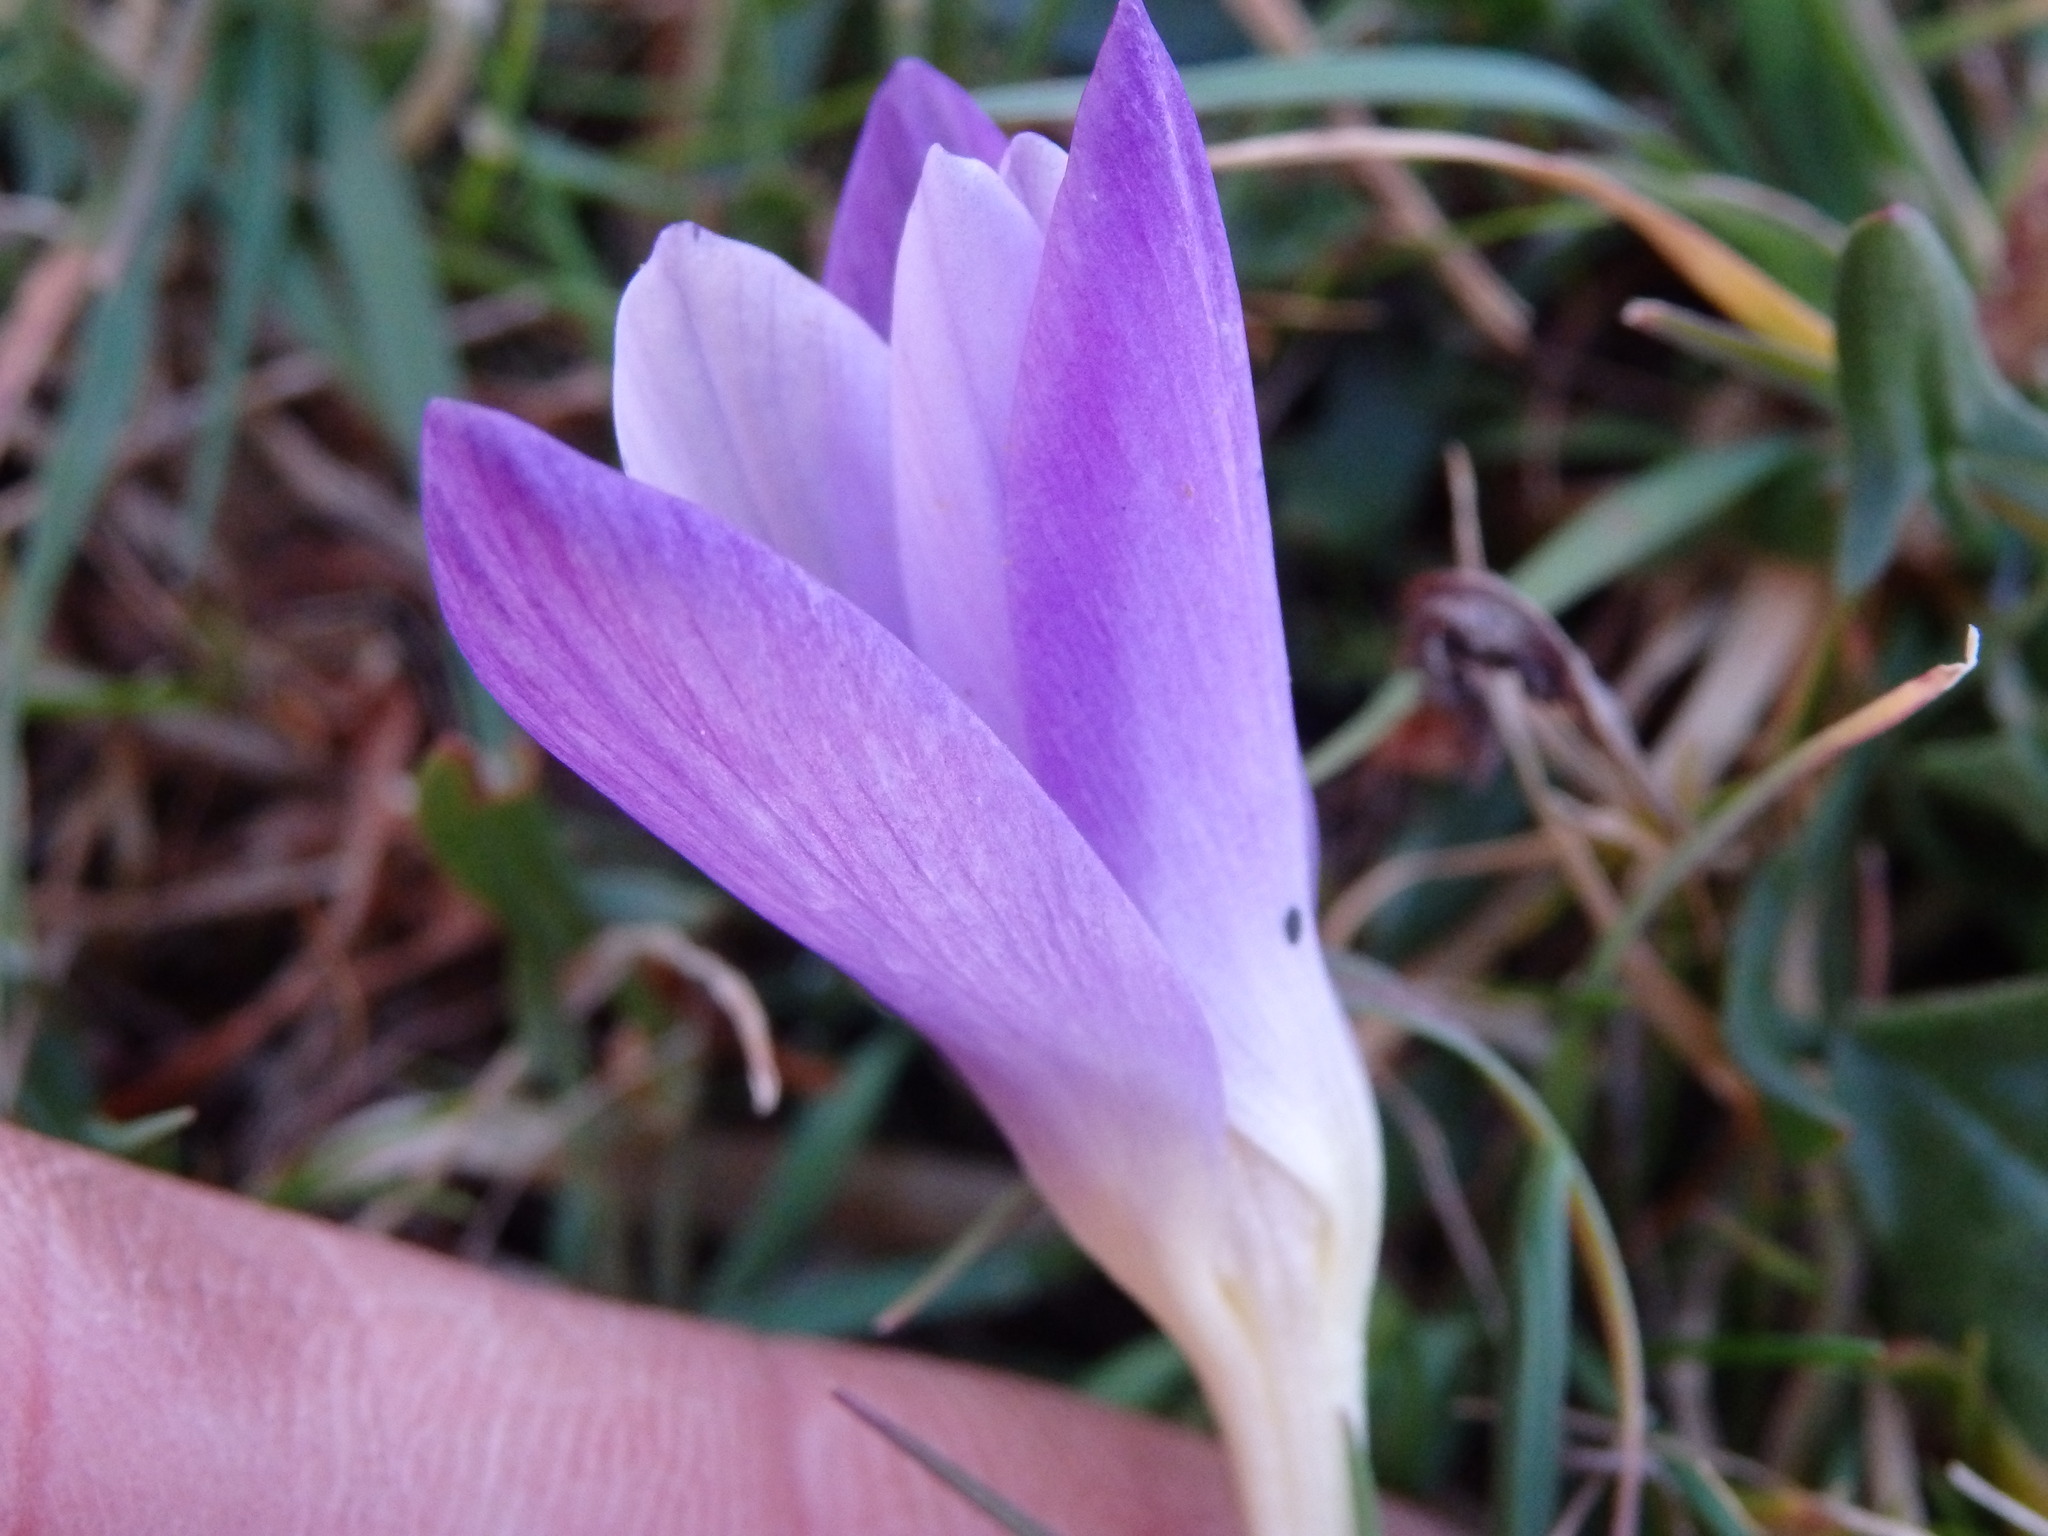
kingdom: Plantae
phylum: Tracheophyta
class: Liliopsida
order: Asparagales
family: Iridaceae
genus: Crocus
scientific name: Crocus carpetanus
